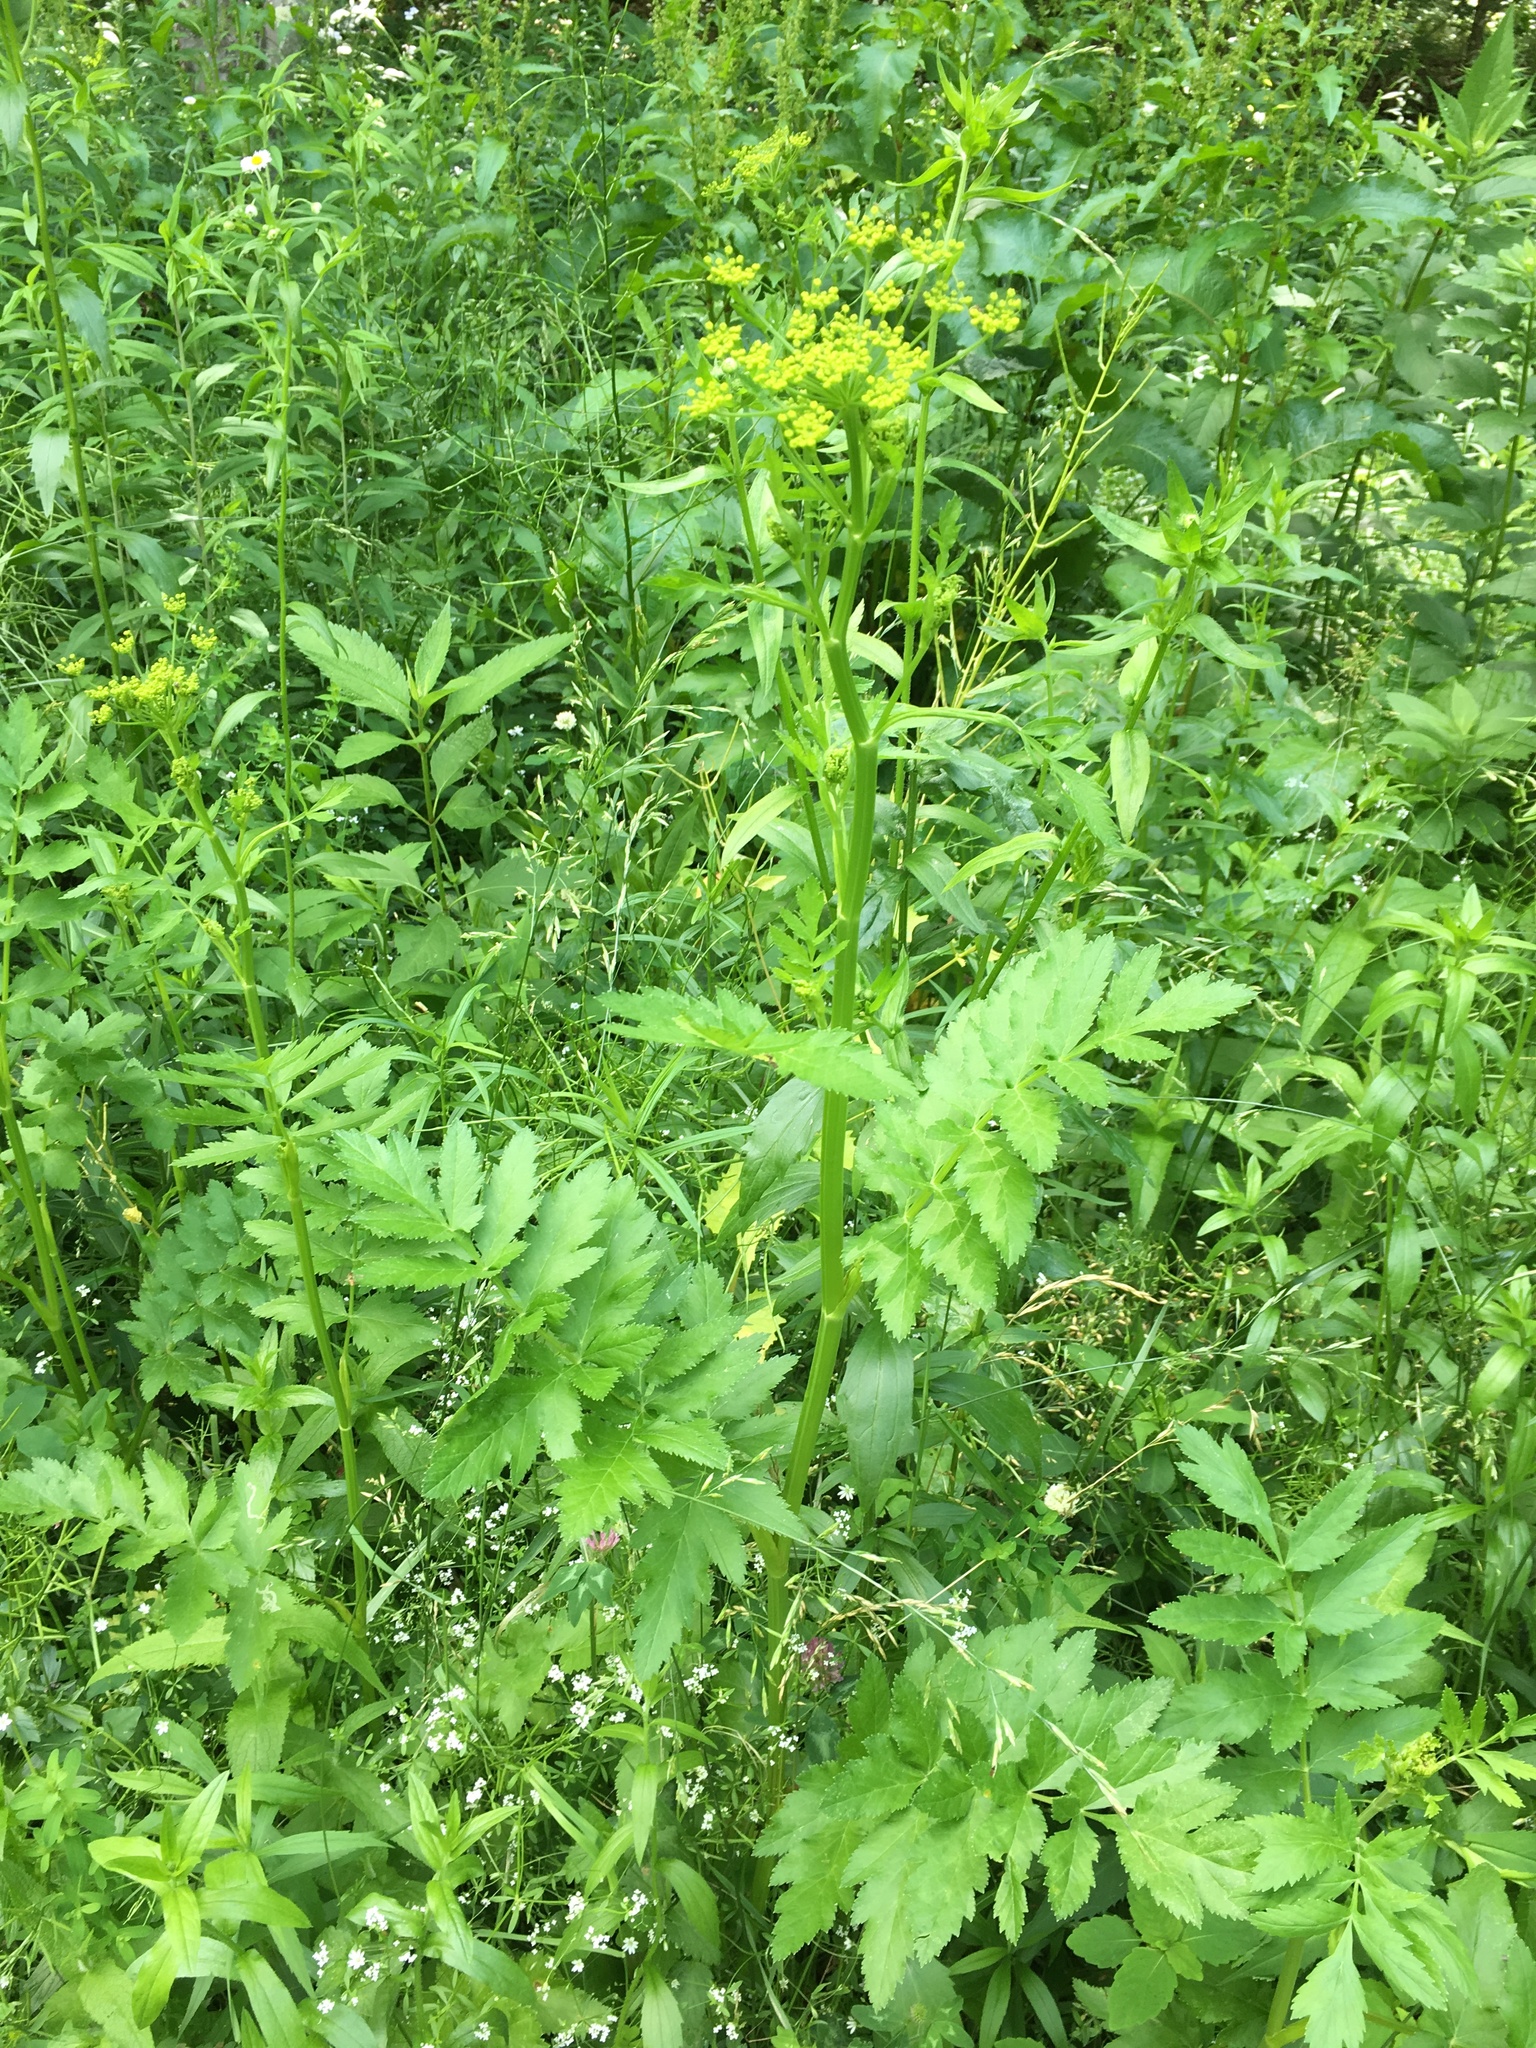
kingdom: Plantae
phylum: Tracheophyta
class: Magnoliopsida
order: Apiales
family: Apiaceae
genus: Pastinaca
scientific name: Pastinaca sativa
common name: Wild parsnip
